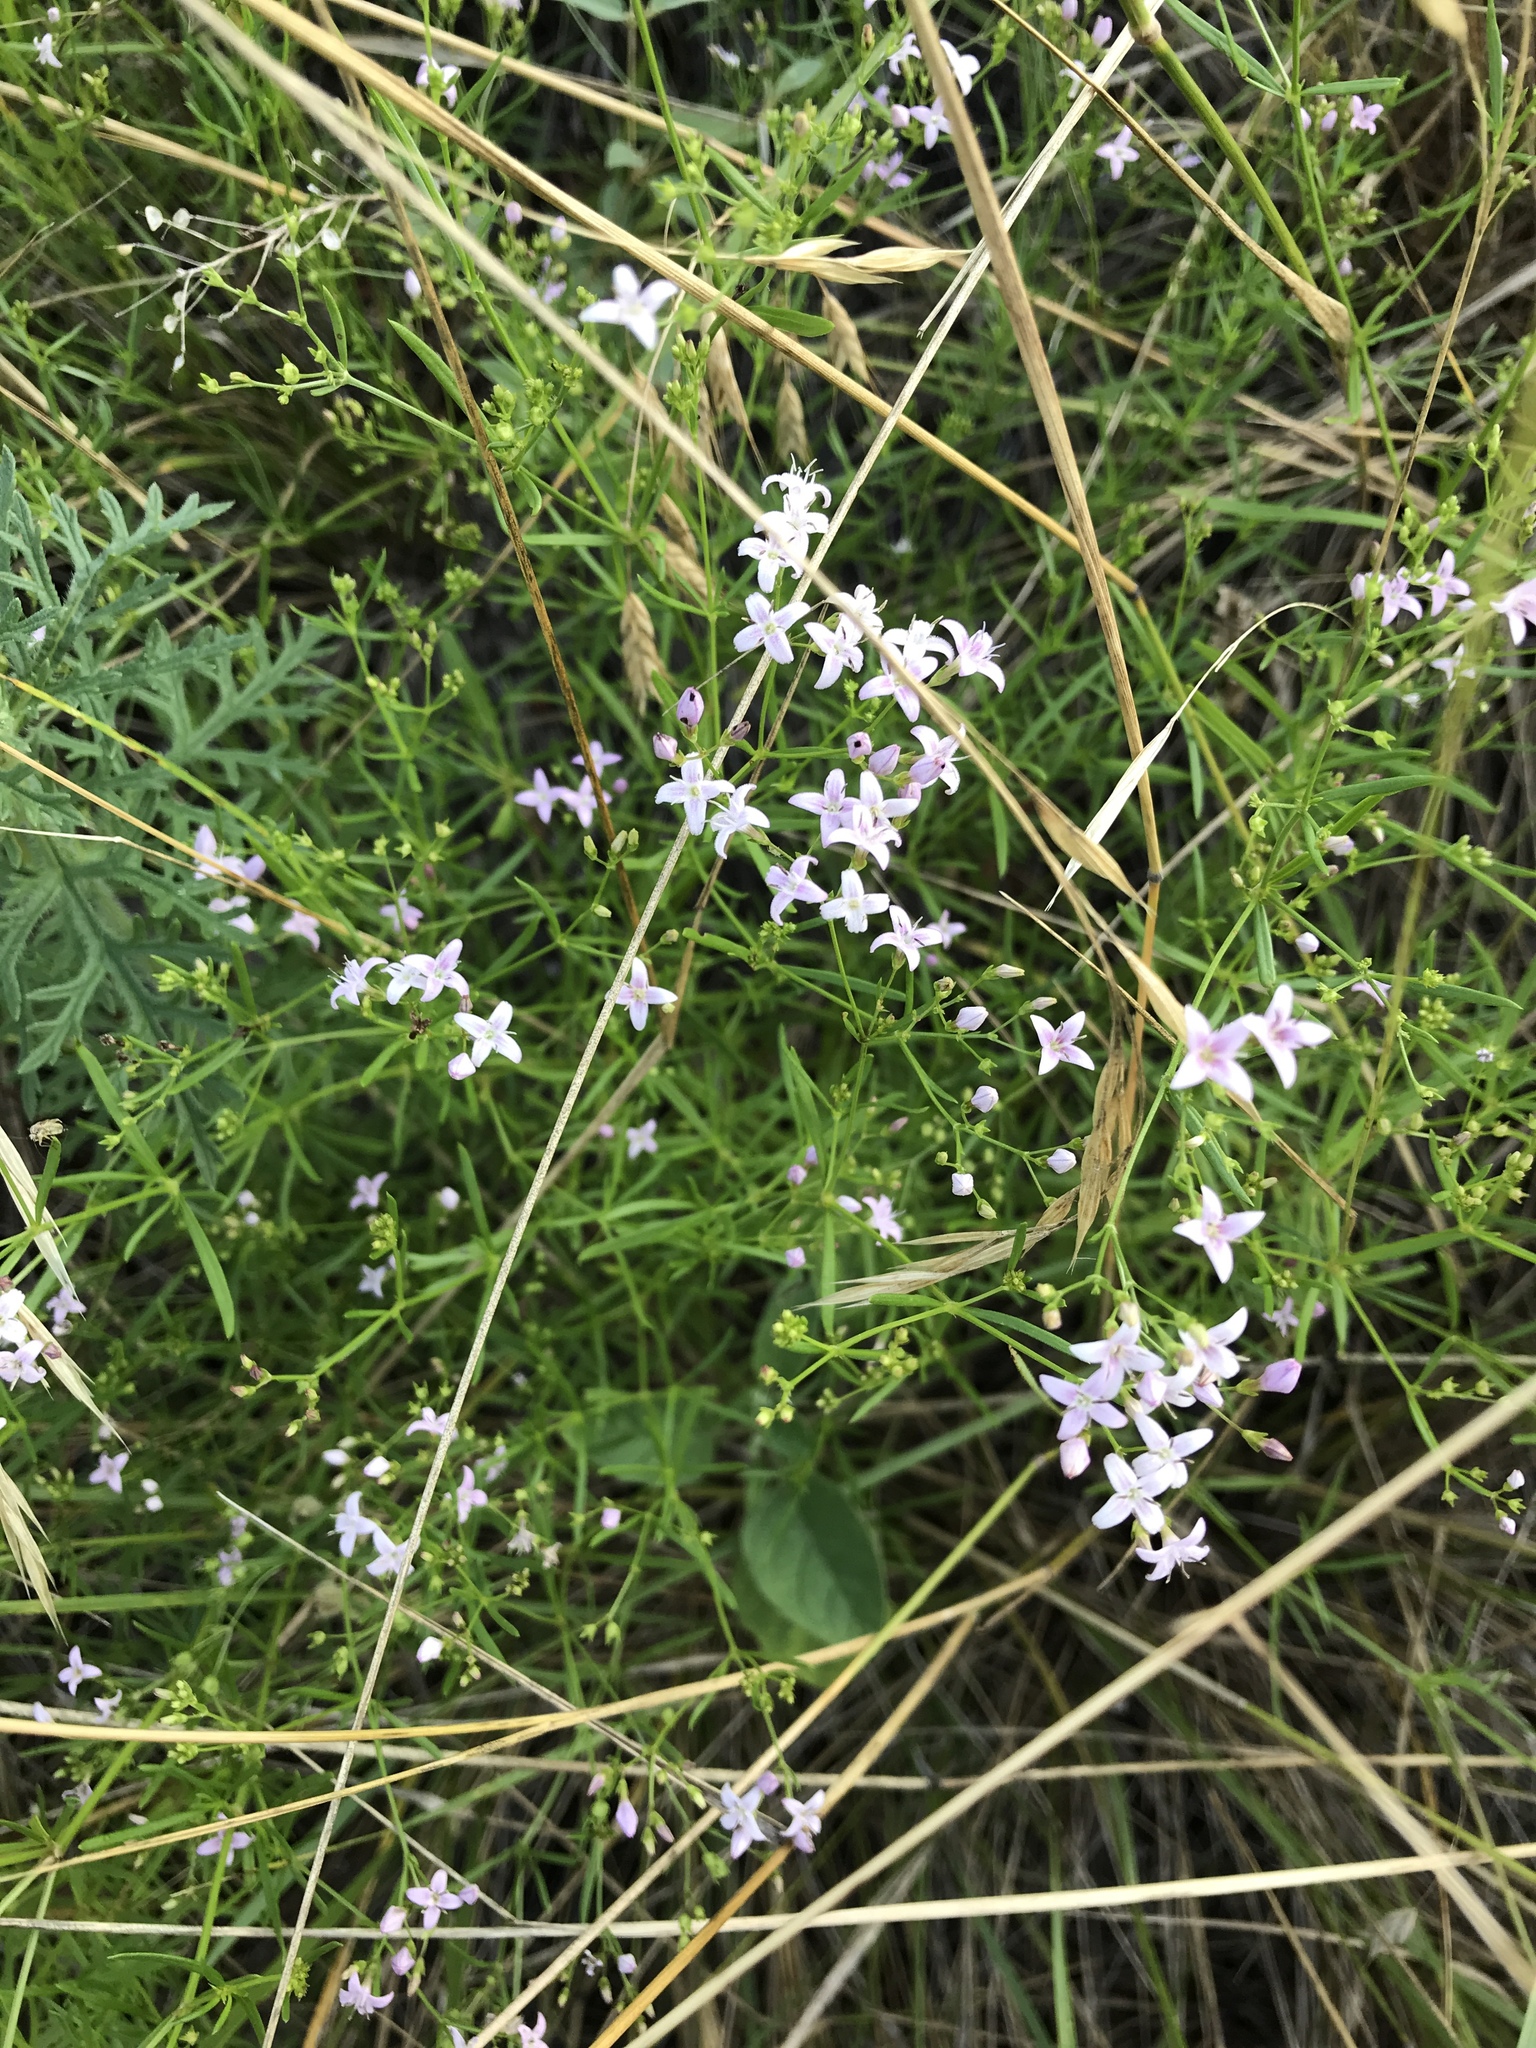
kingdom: Plantae
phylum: Tracheophyta
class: Magnoliopsida
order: Gentianales
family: Rubiaceae
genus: Stenaria
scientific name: Stenaria nigricans
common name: Diamondflowers
